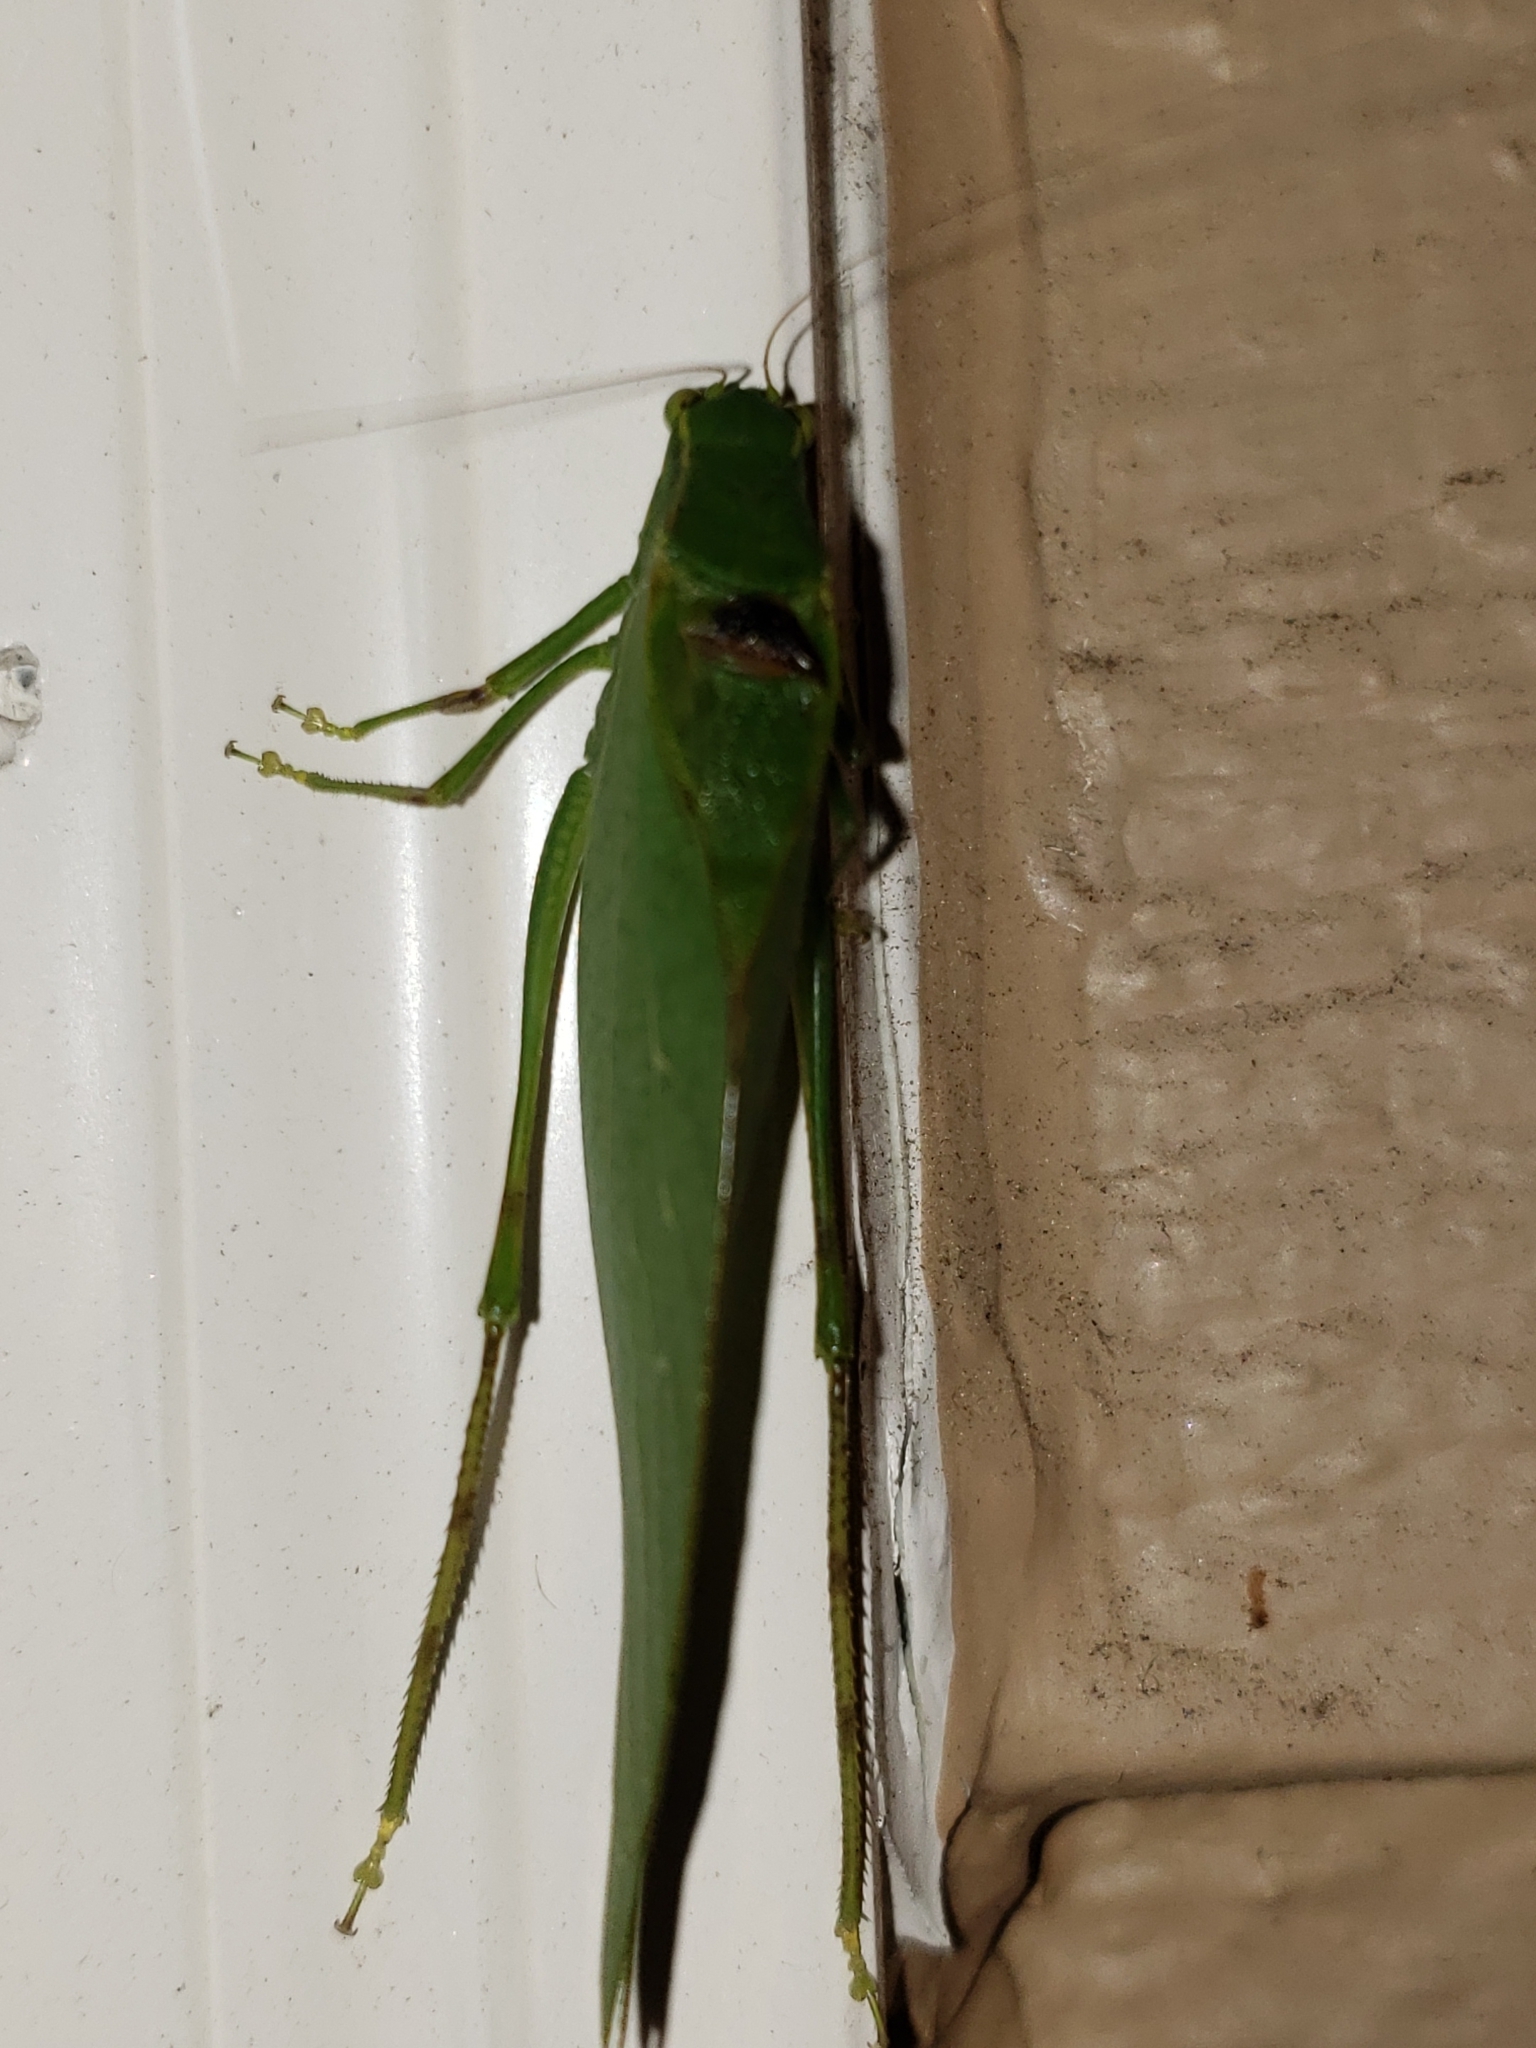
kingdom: Animalia
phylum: Arthropoda
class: Insecta
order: Orthoptera
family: Tettigoniidae
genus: Microcentrum
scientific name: Microcentrum retinerve
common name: Angular-winged katydid
